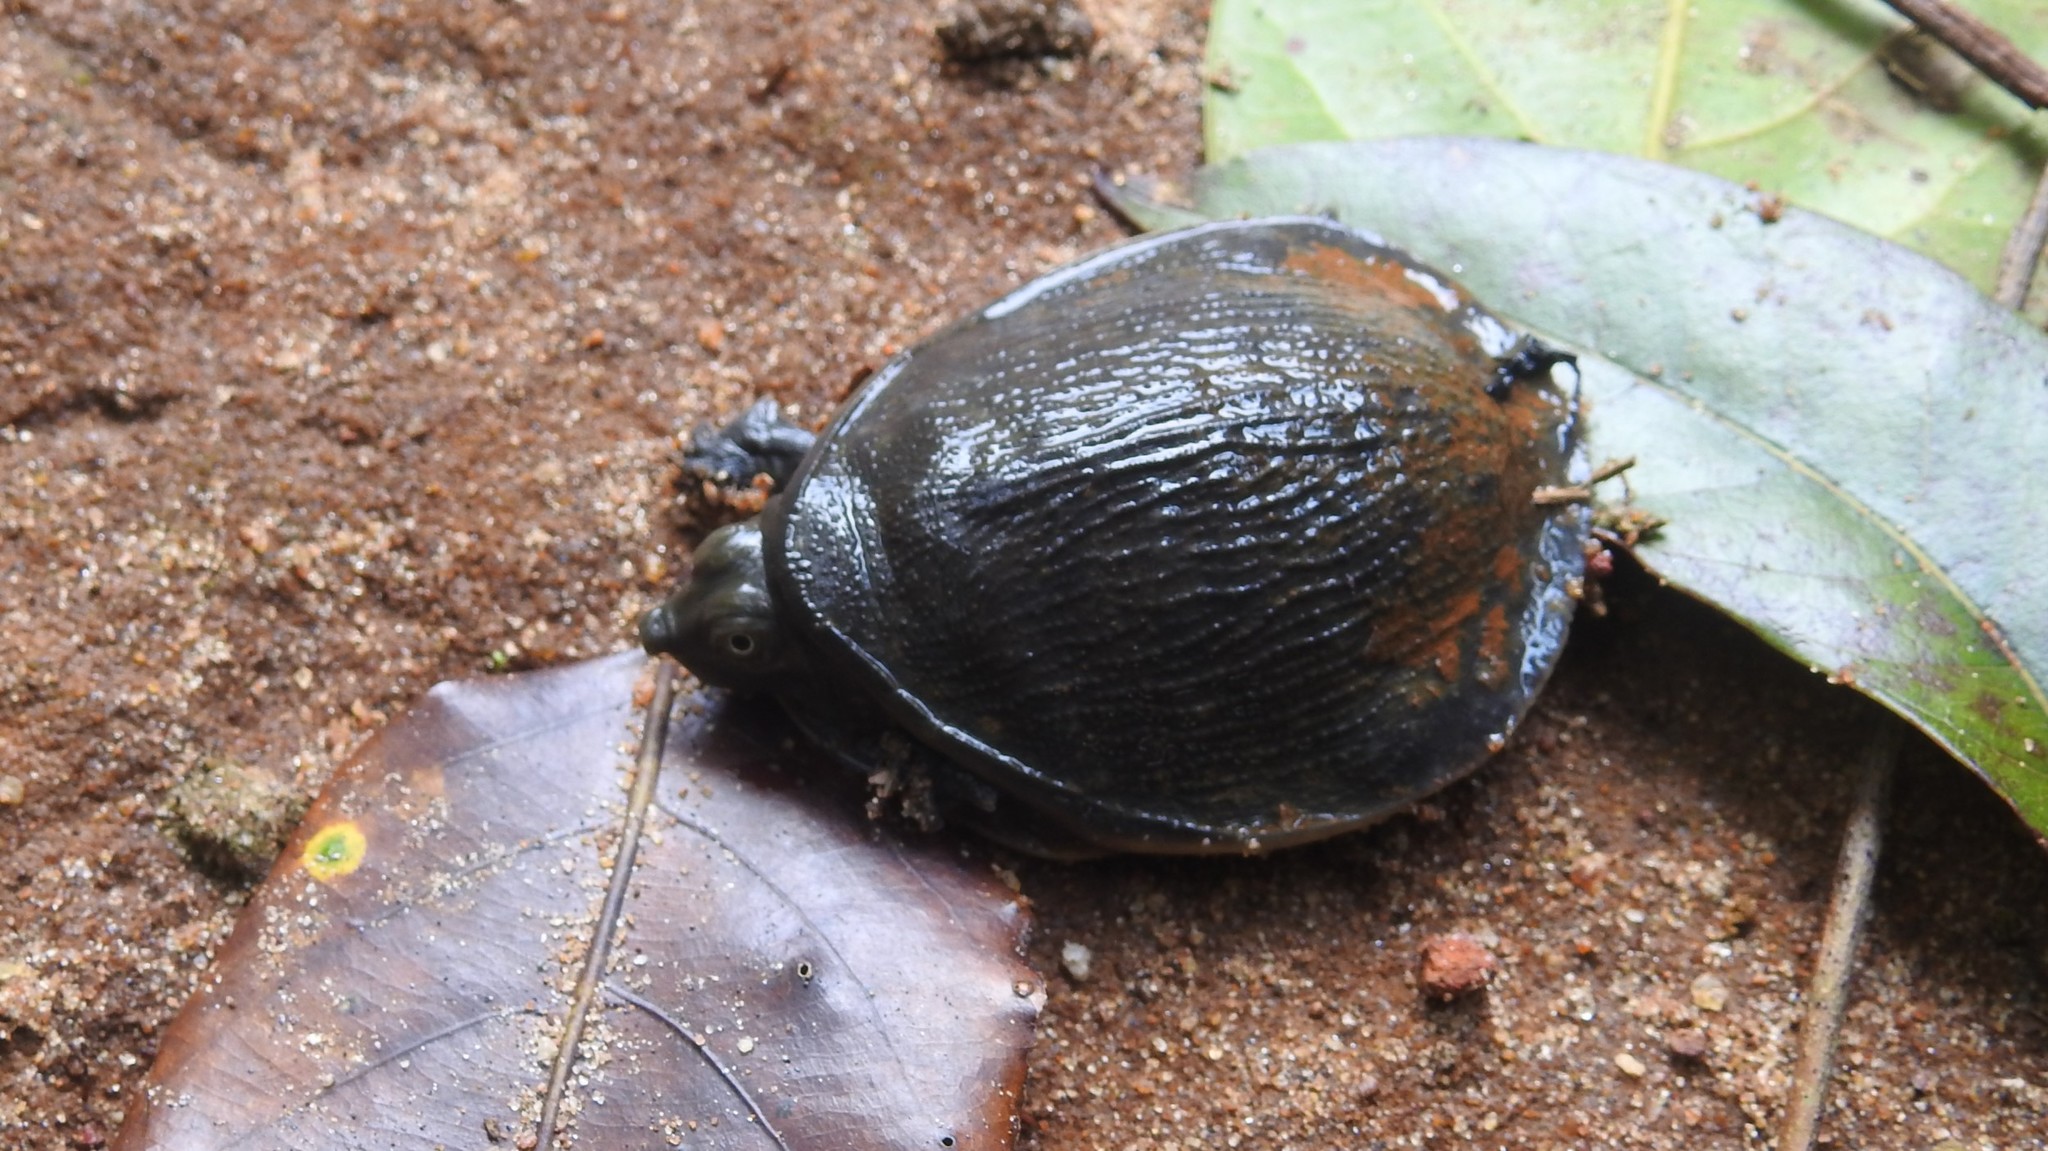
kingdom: Animalia
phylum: Chordata
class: Testudines
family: Trionychidae
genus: Lissemys
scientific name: Lissemys punctata
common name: Indian flap-shelled turtle
